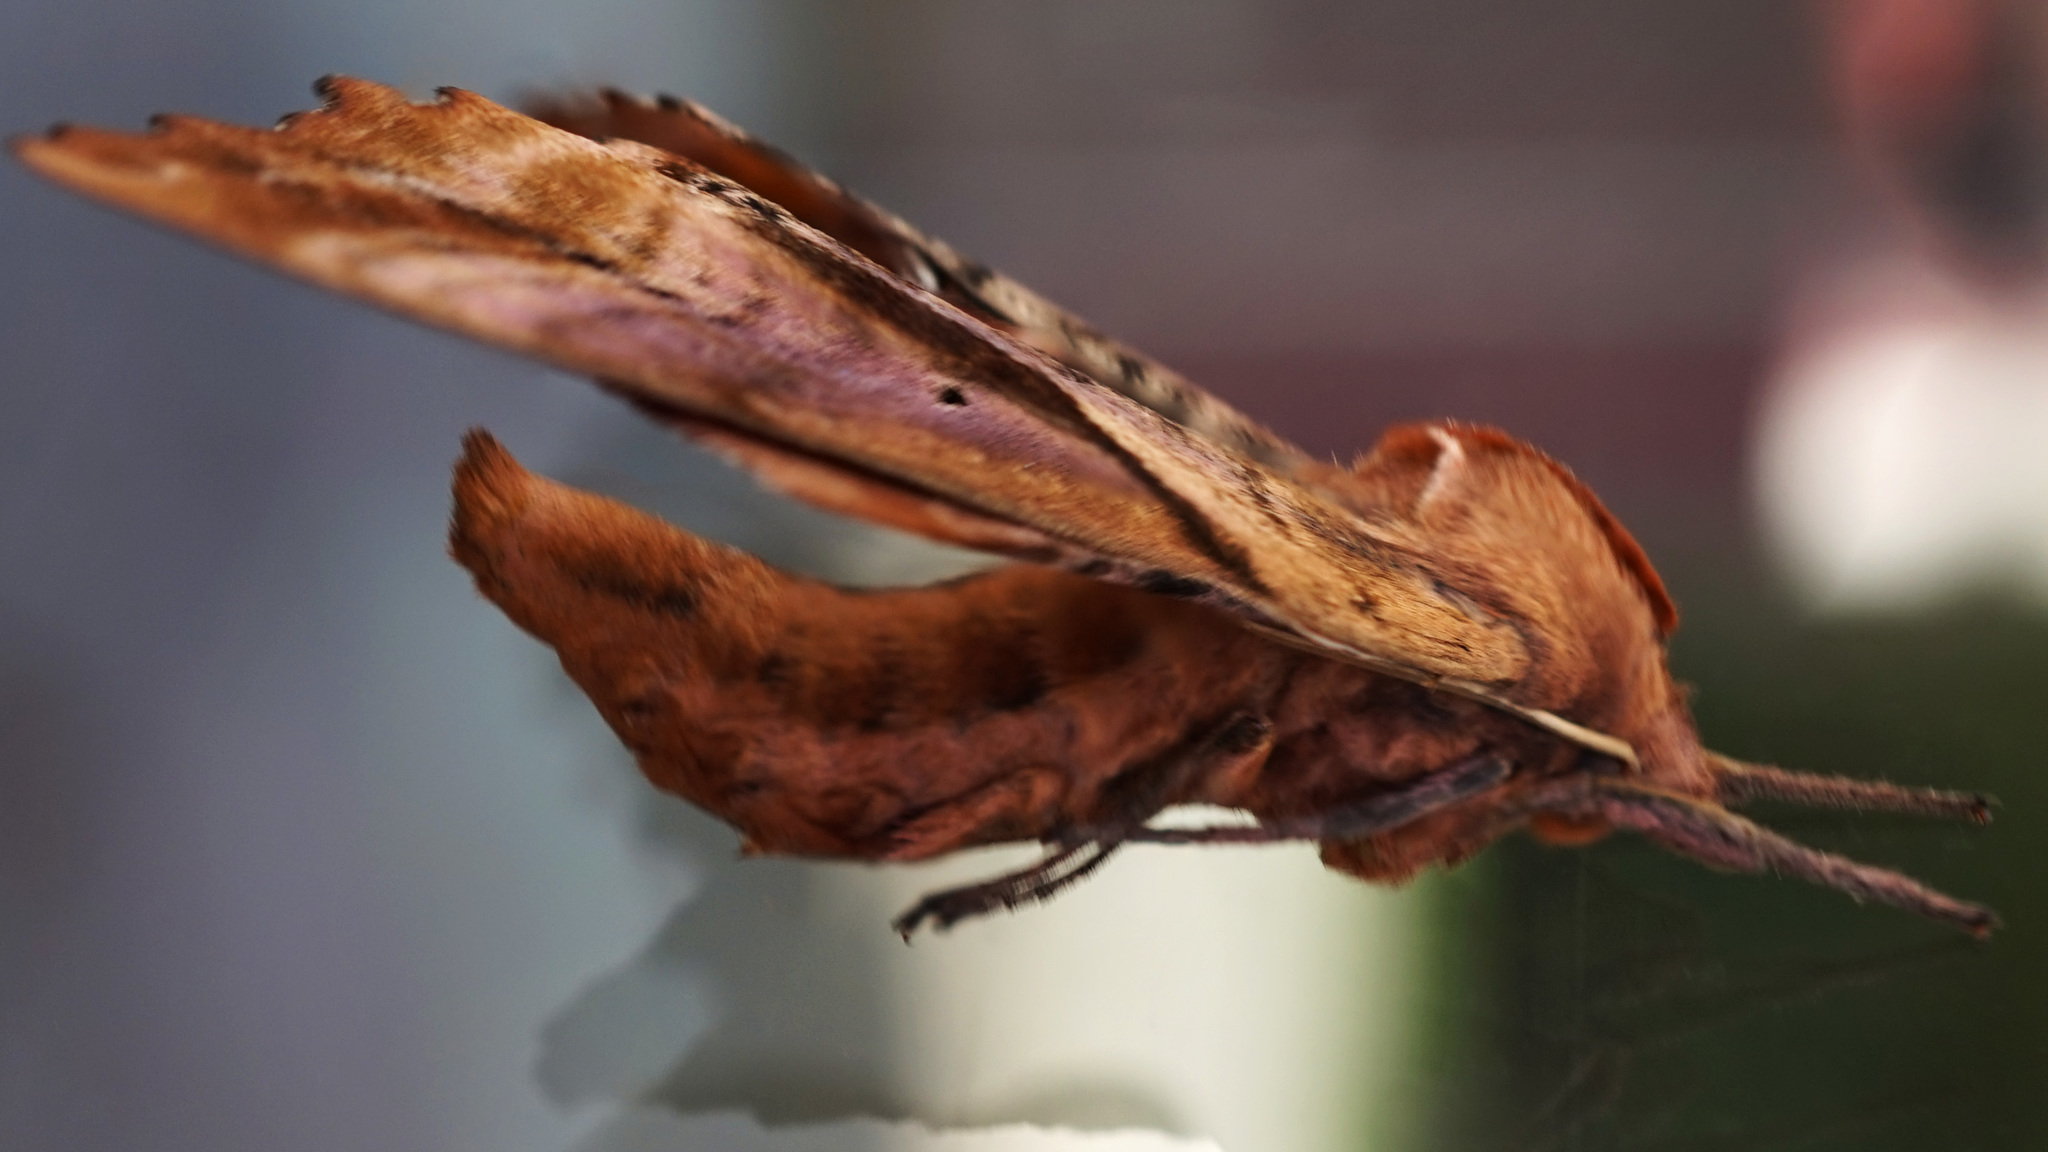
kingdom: Animalia
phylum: Arthropoda
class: Insecta
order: Lepidoptera
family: Sphingidae
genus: Paonias
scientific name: Paonias excaecata
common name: Blind-eyed sphinx
